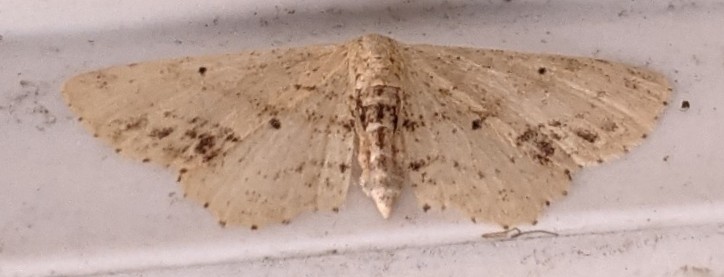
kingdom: Animalia
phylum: Arthropoda
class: Insecta
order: Lepidoptera
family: Geometridae
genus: Idaea
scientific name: Idaea dimidiata
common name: Single-dotted wave
